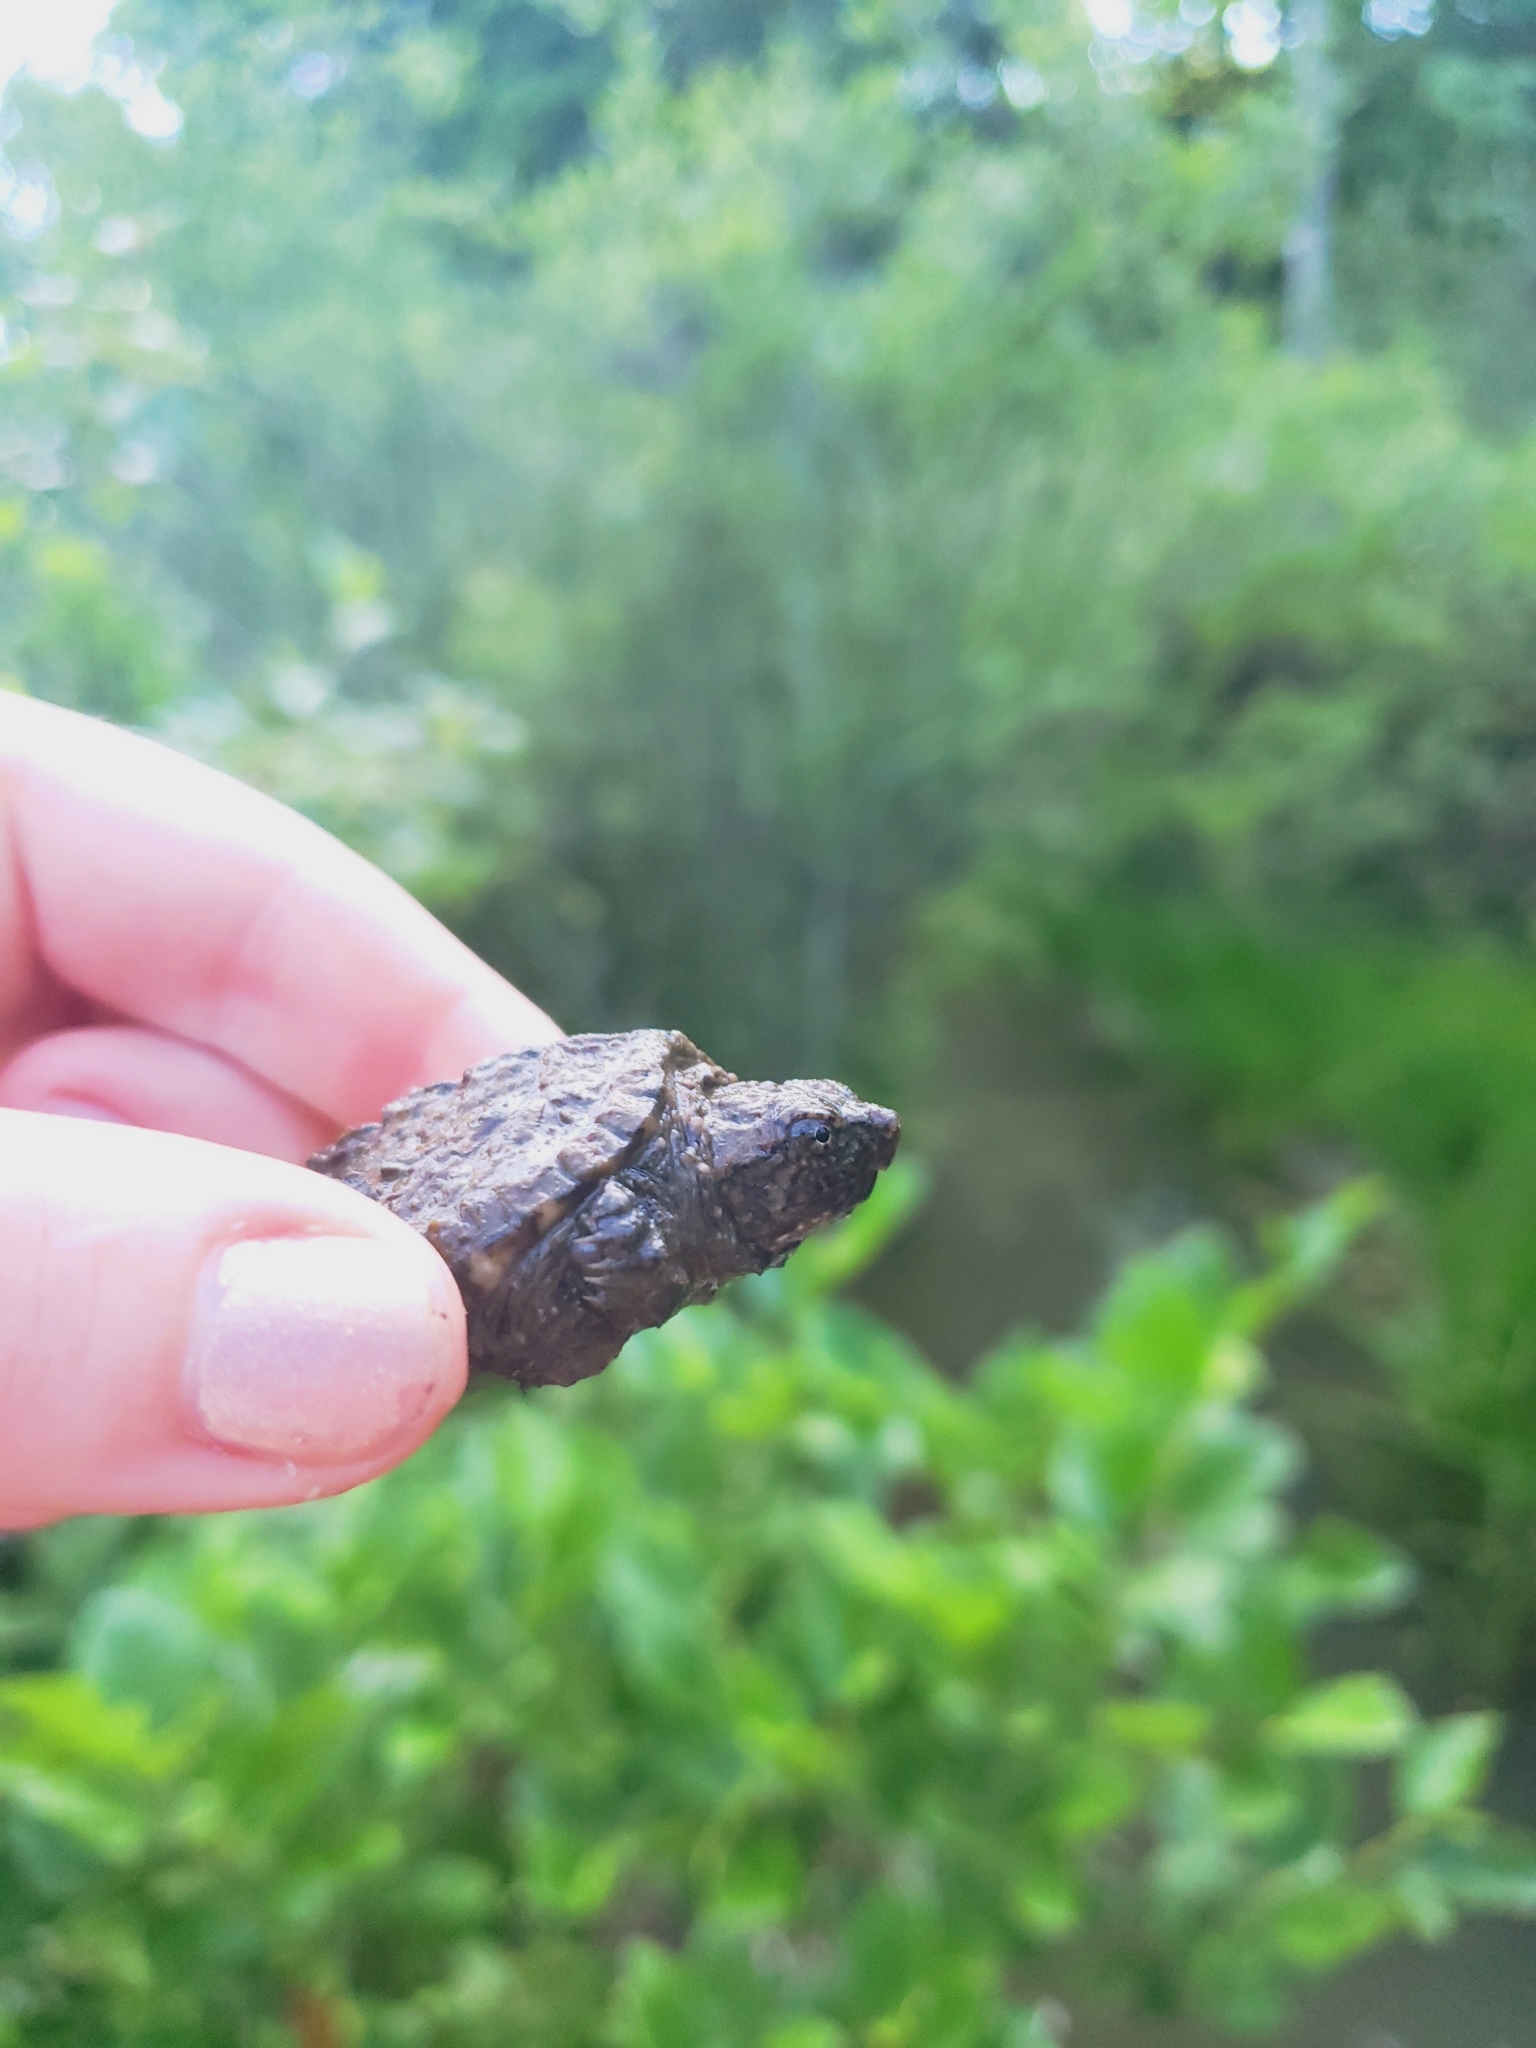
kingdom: Animalia
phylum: Chordata
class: Testudines
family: Chelydridae
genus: Chelydra
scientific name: Chelydra serpentina
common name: Common snapping turtle
